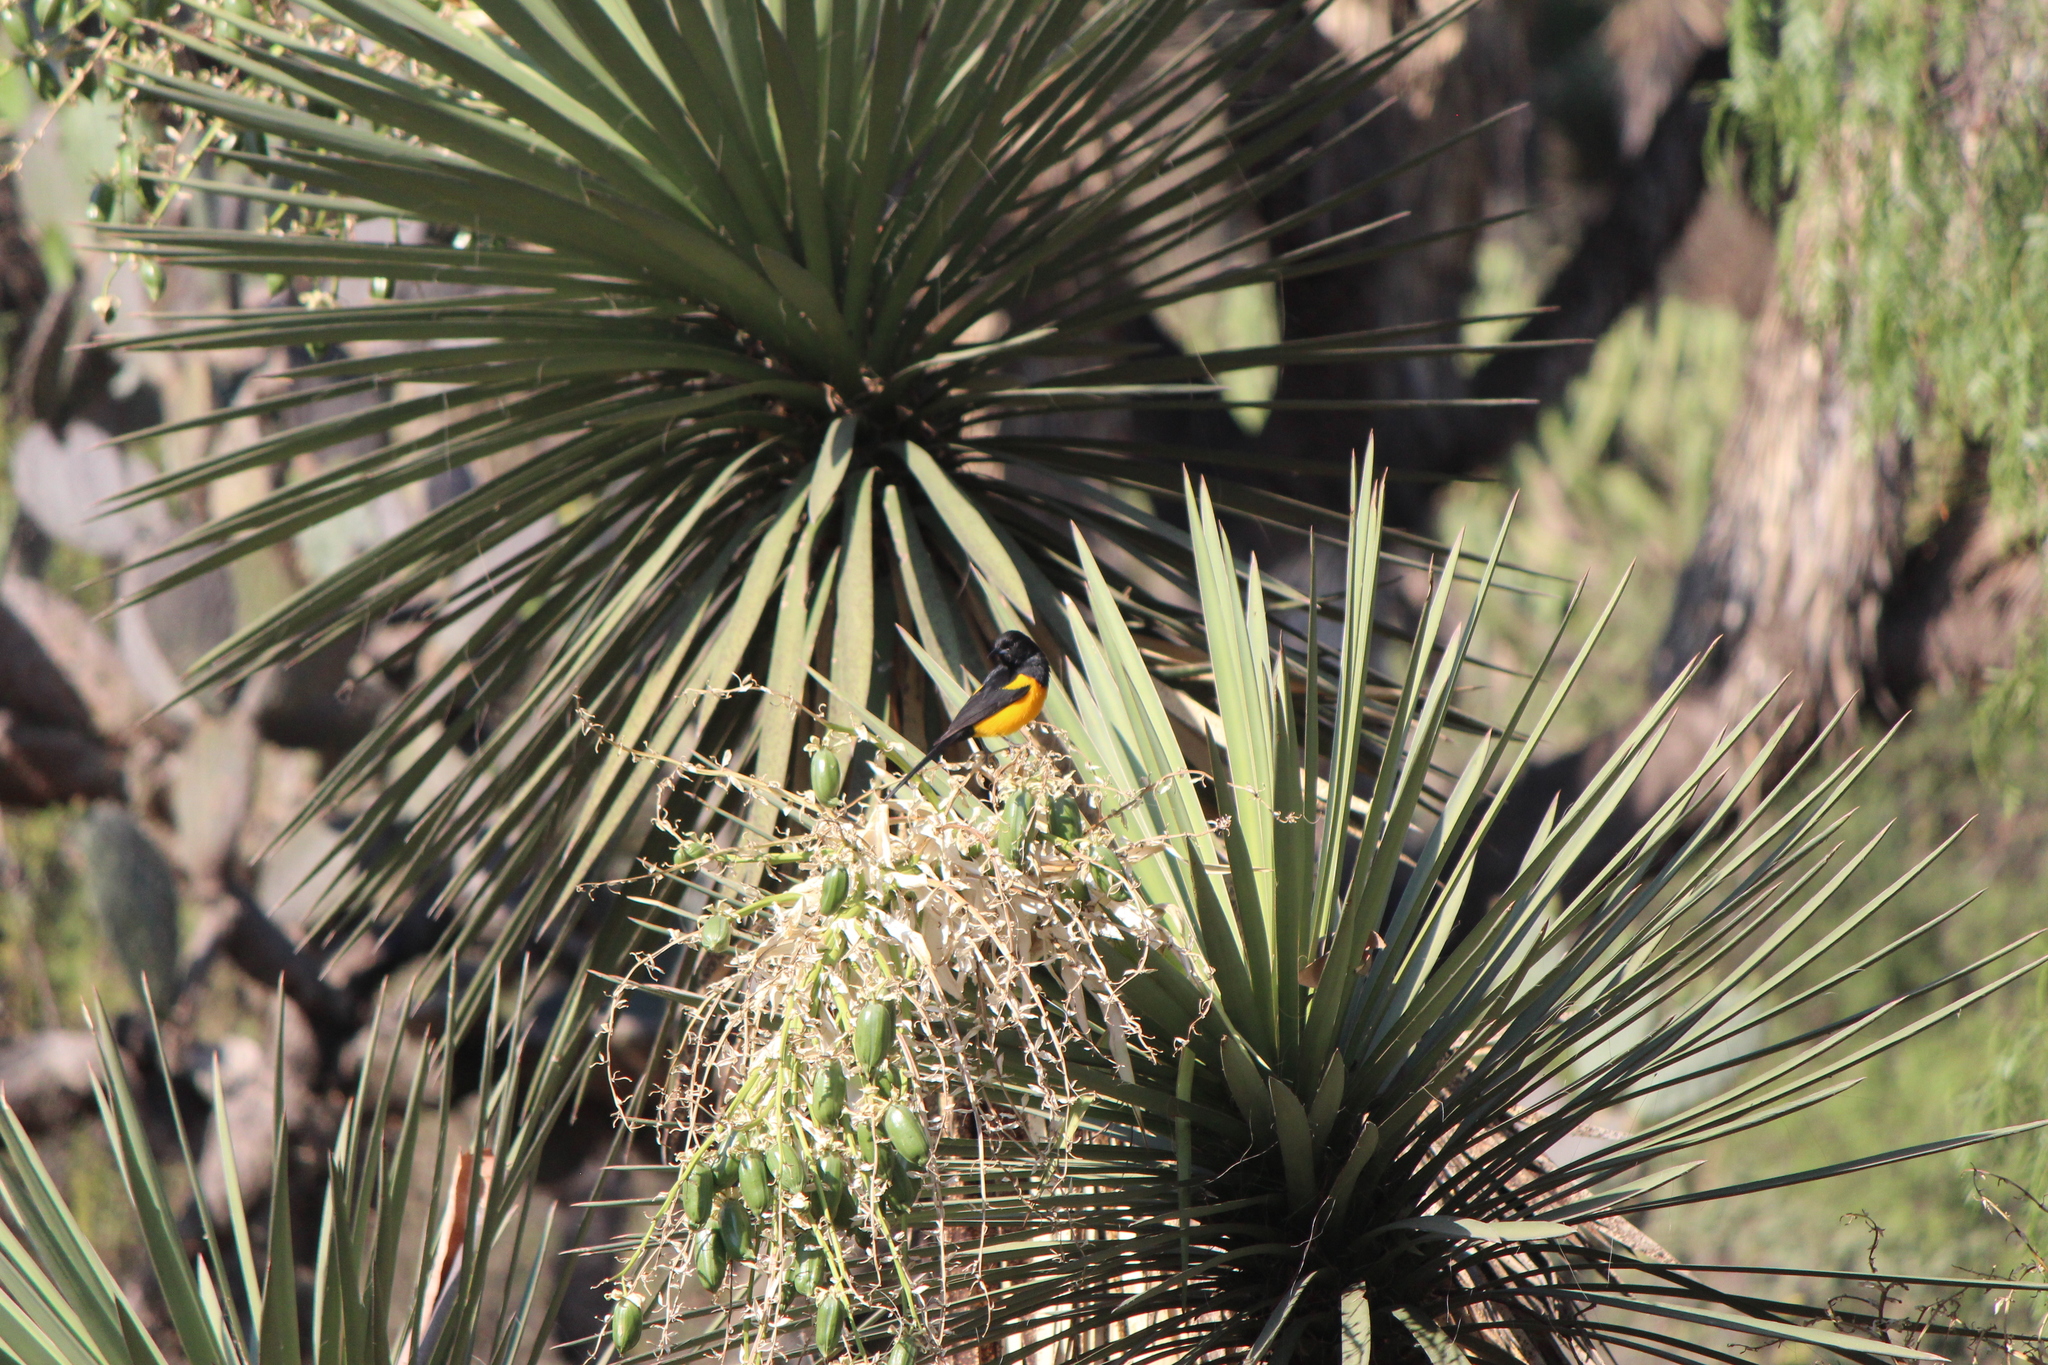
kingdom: Animalia
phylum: Chordata
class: Aves
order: Passeriformes
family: Icteridae
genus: Icterus
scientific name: Icterus wagleri
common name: Black-vented oriole
